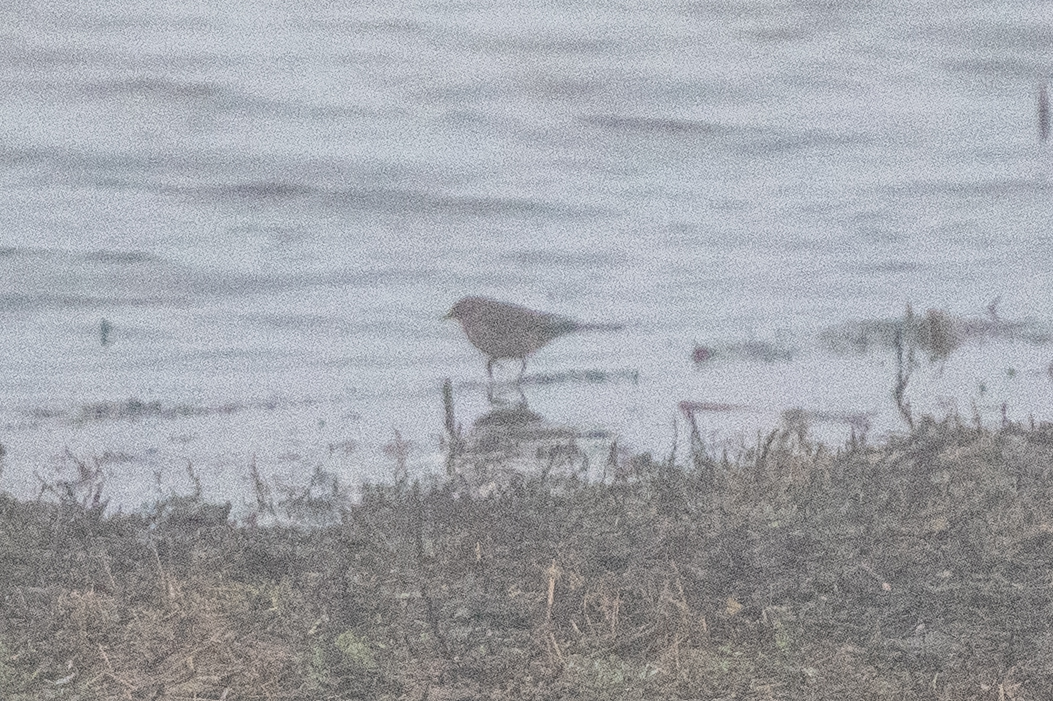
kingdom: Animalia
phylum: Chordata
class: Aves
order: Passeriformes
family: Motacillidae
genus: Anthus
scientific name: Anthus rubescens
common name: Buff-bellied pipit
